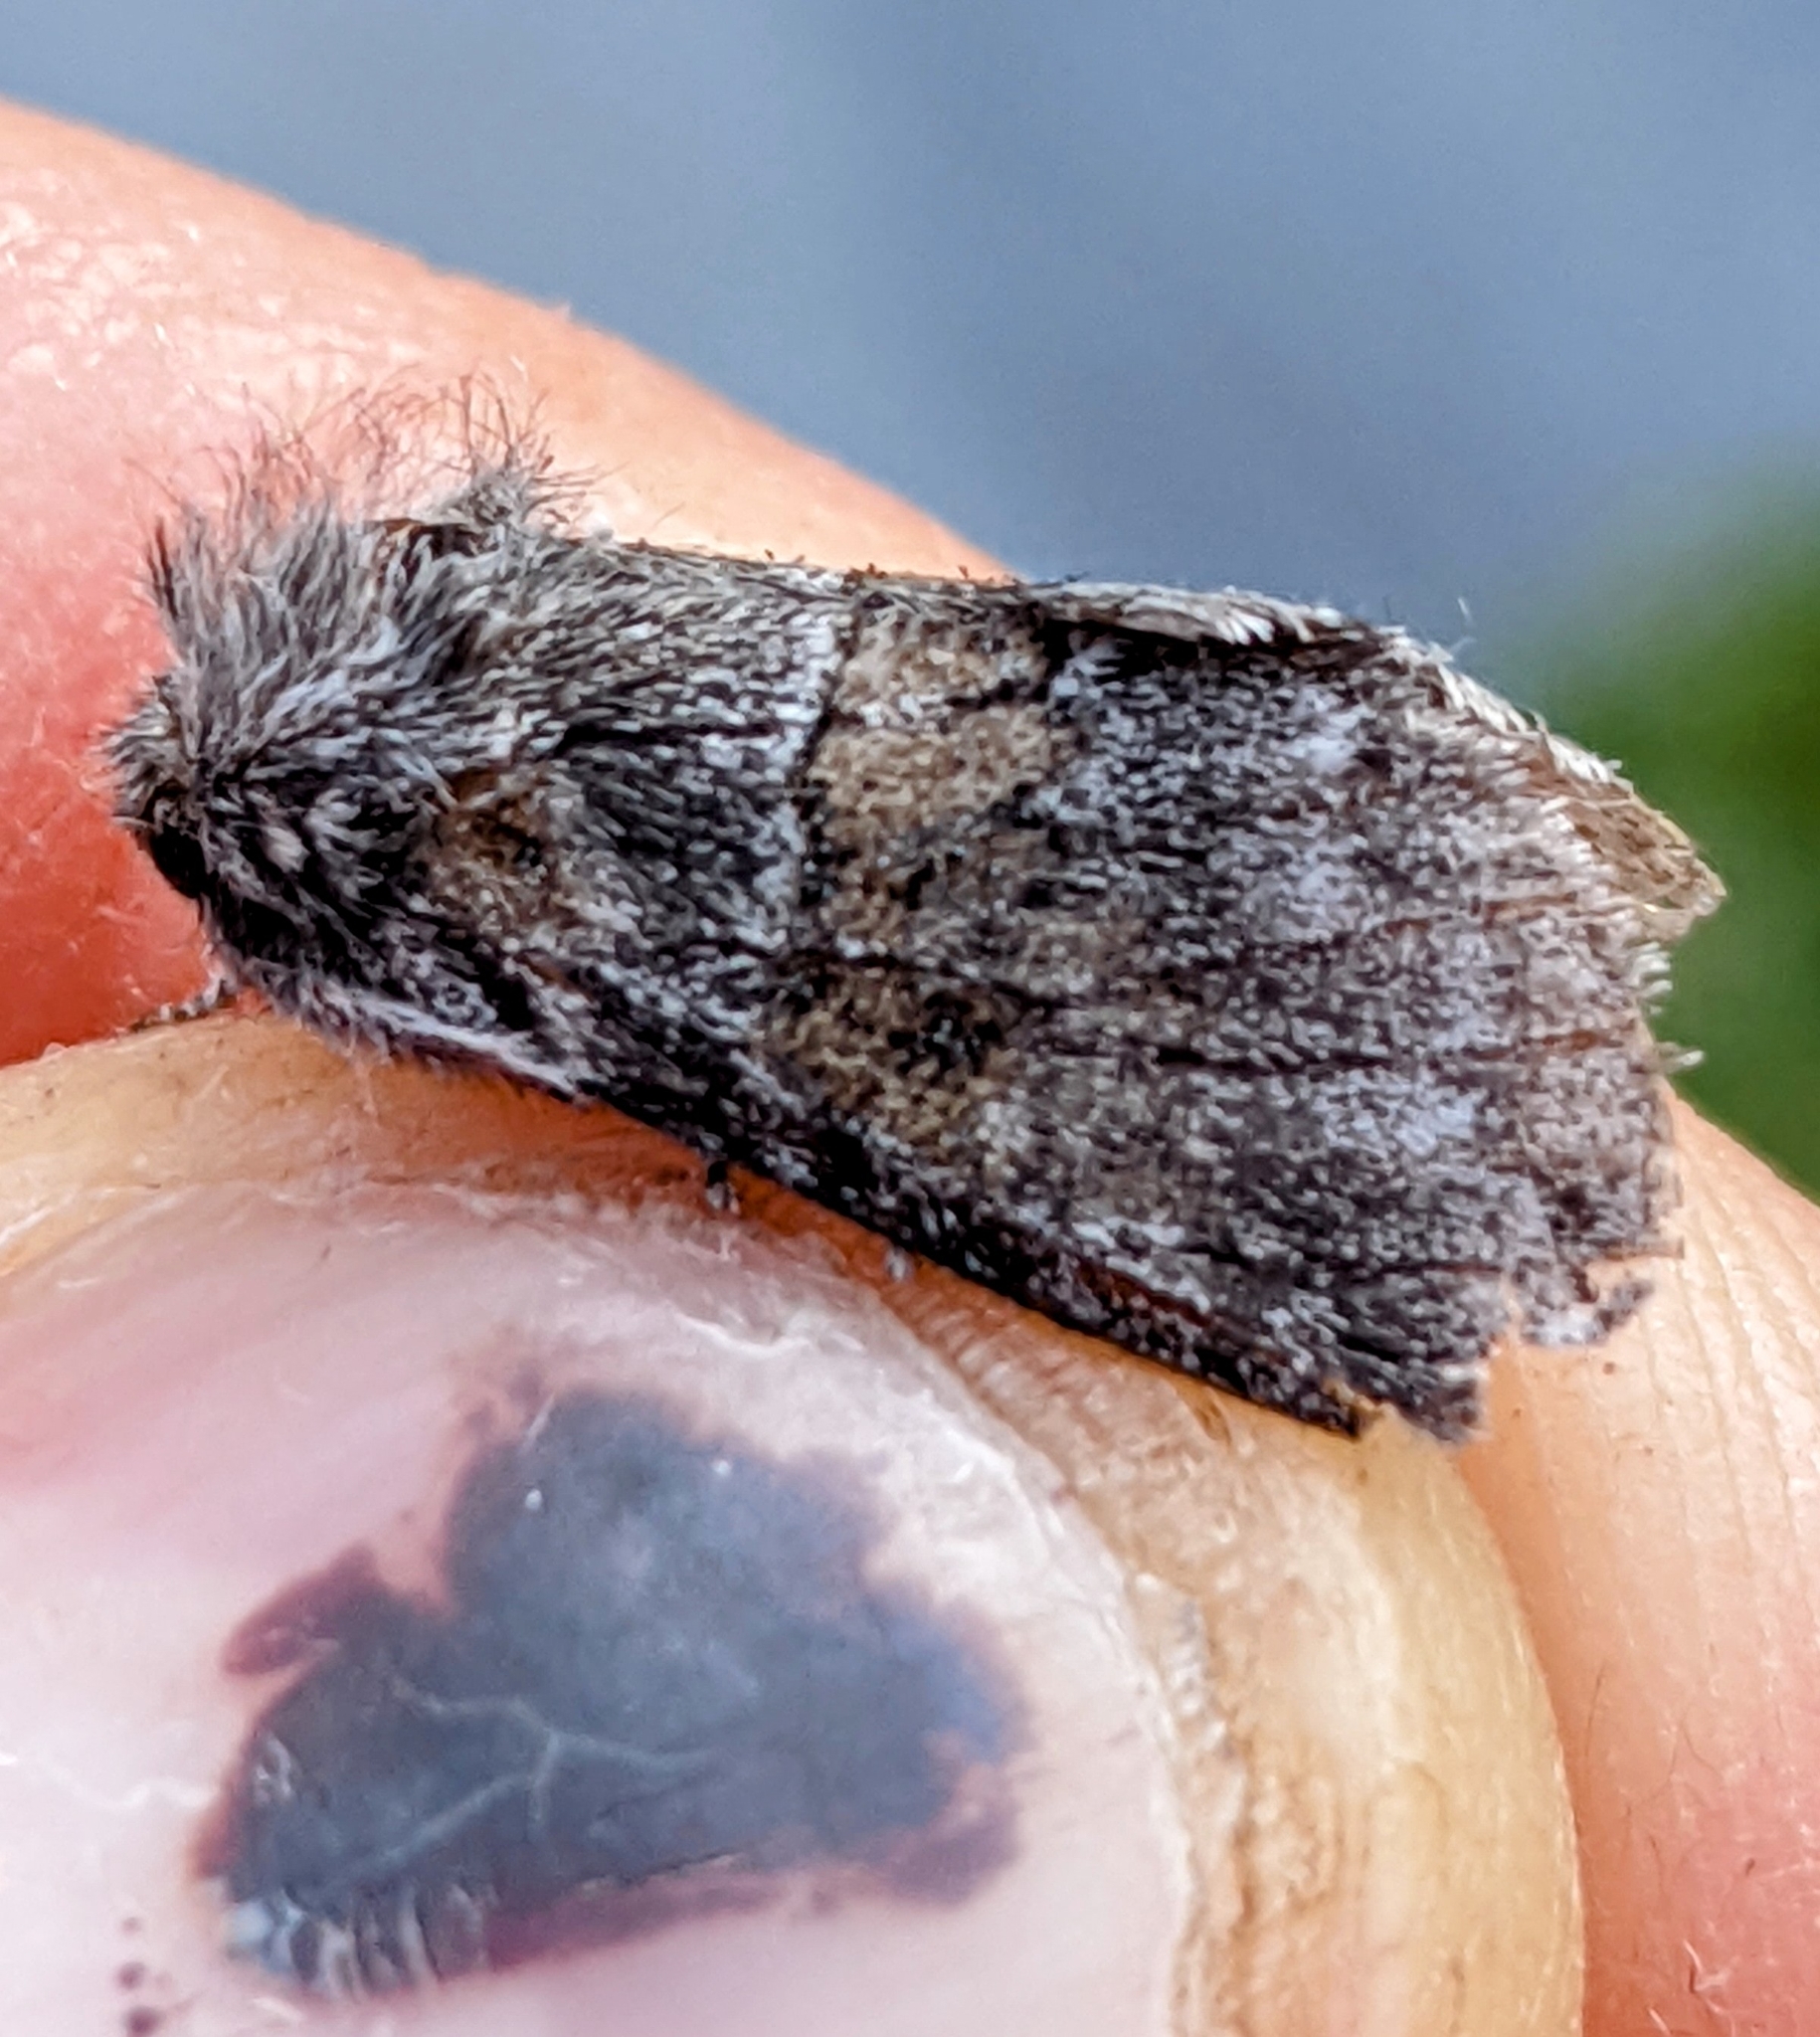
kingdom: Animalia
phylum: Arthropoda
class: Insecta
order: Lepidoptera
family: Notodontidae
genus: Gluphisia
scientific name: Gluphisia septentrionis
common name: Common gluphisia
